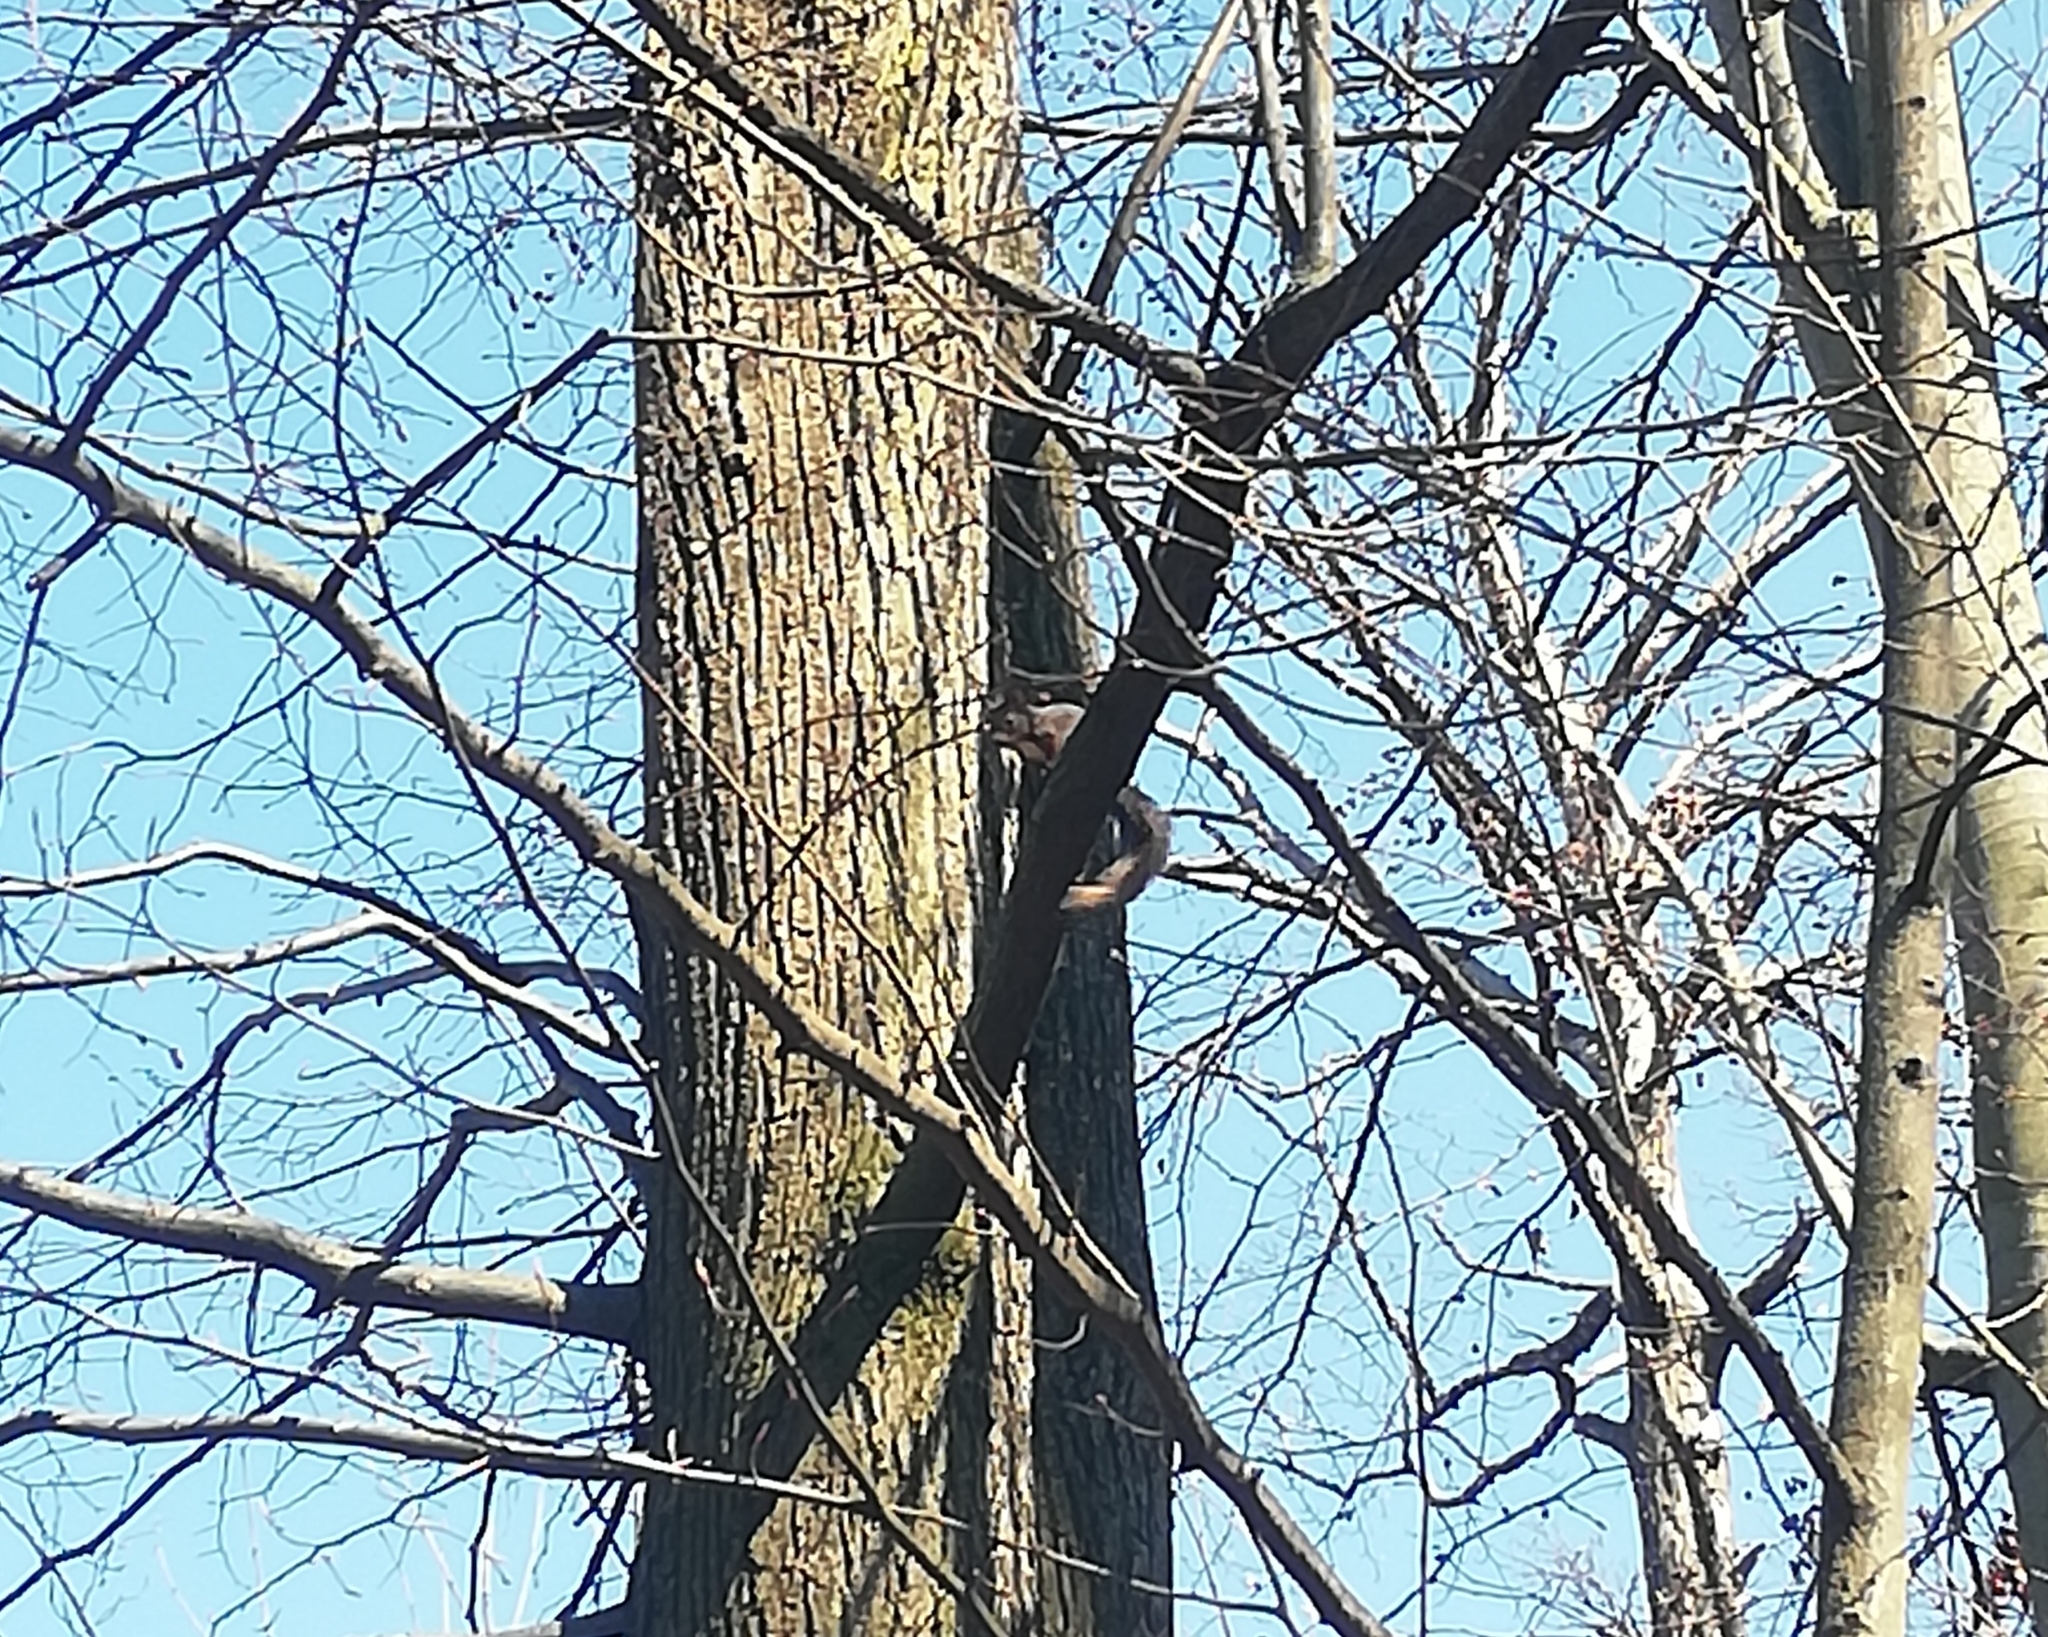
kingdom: Animalia
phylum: Chordata
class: Mammalia
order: Rodentia
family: Sciuridae
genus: Sciurus
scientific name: Sciurus vulgaris
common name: Eurasian red squirrel
